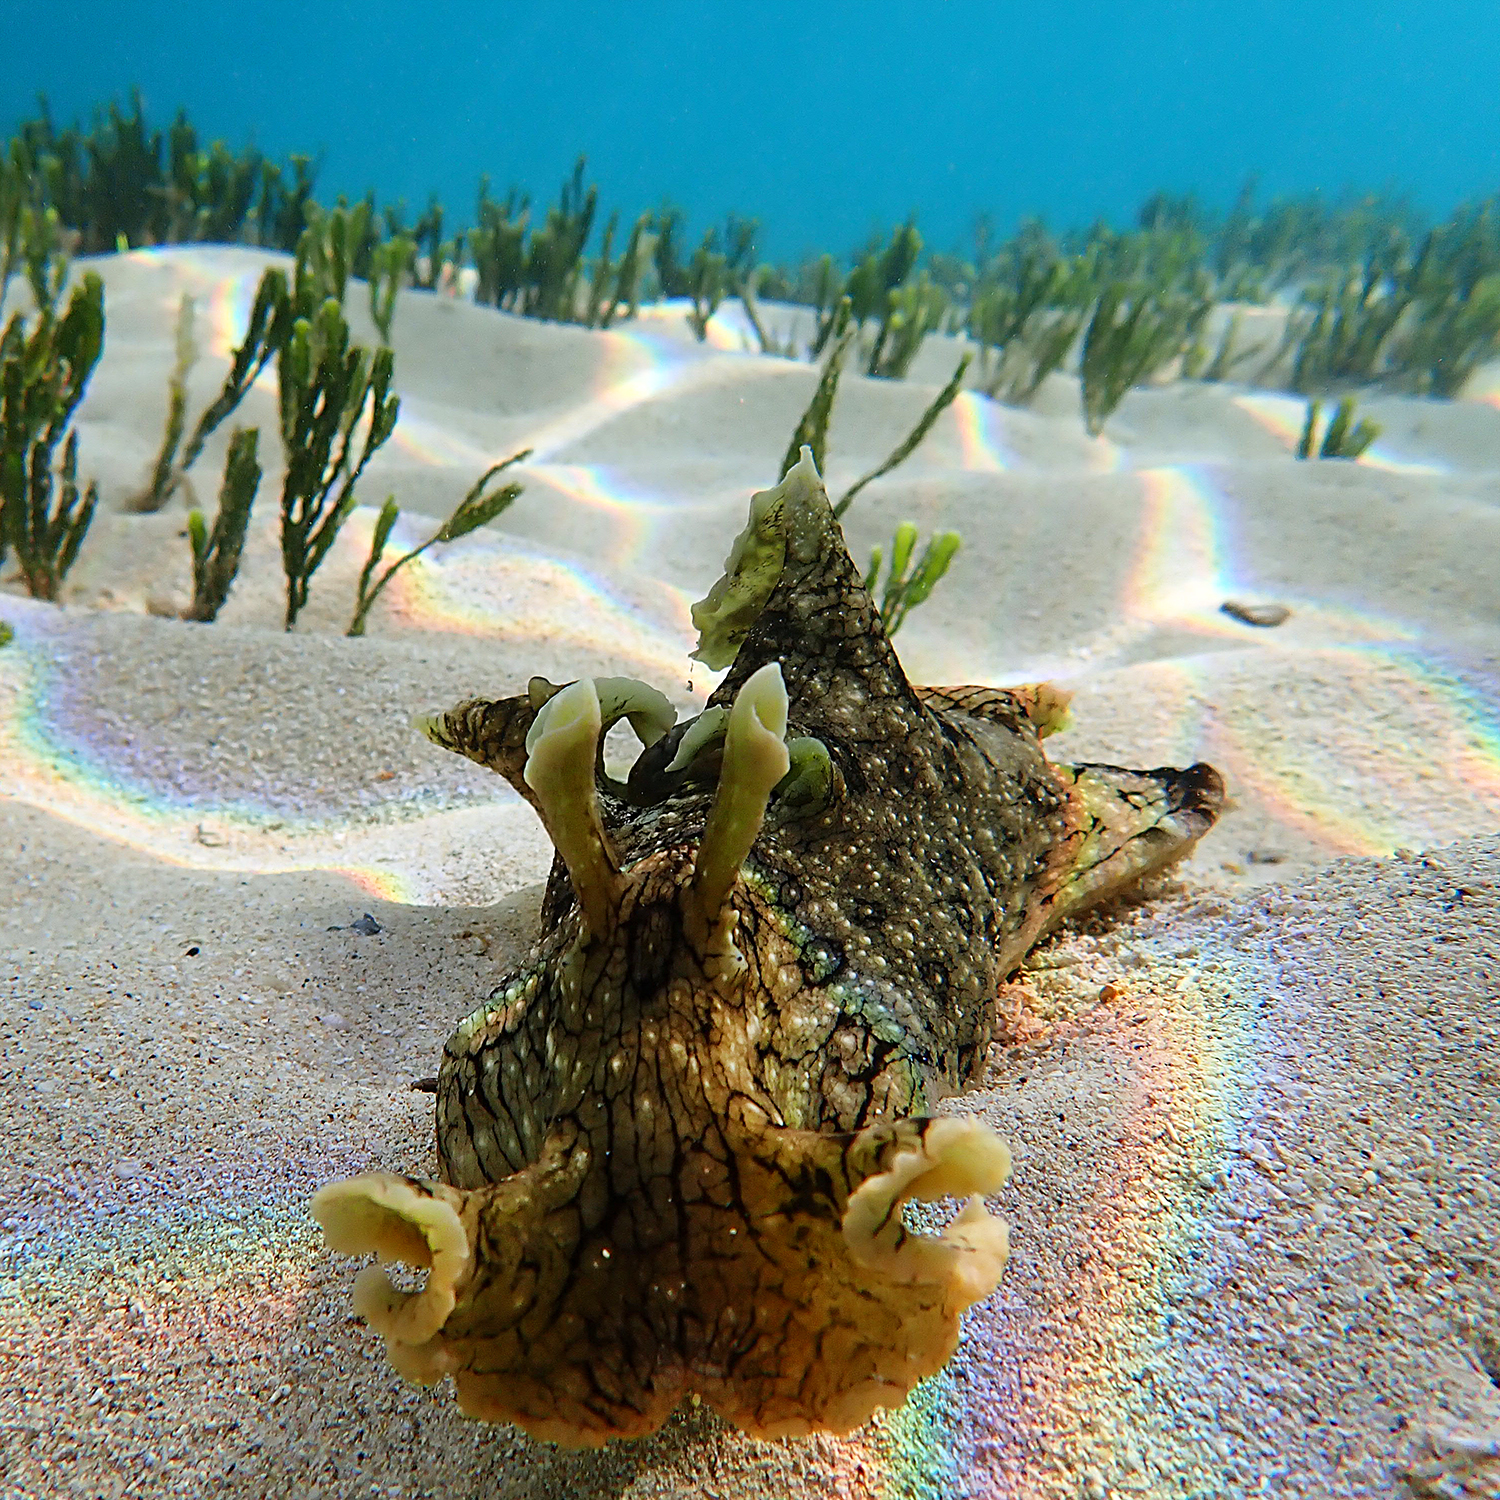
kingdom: Animalia
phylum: Mollusca
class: Gastropoda
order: Aplysiida
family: Aplysiidae
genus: Aplysia
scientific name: Aplysia argus
